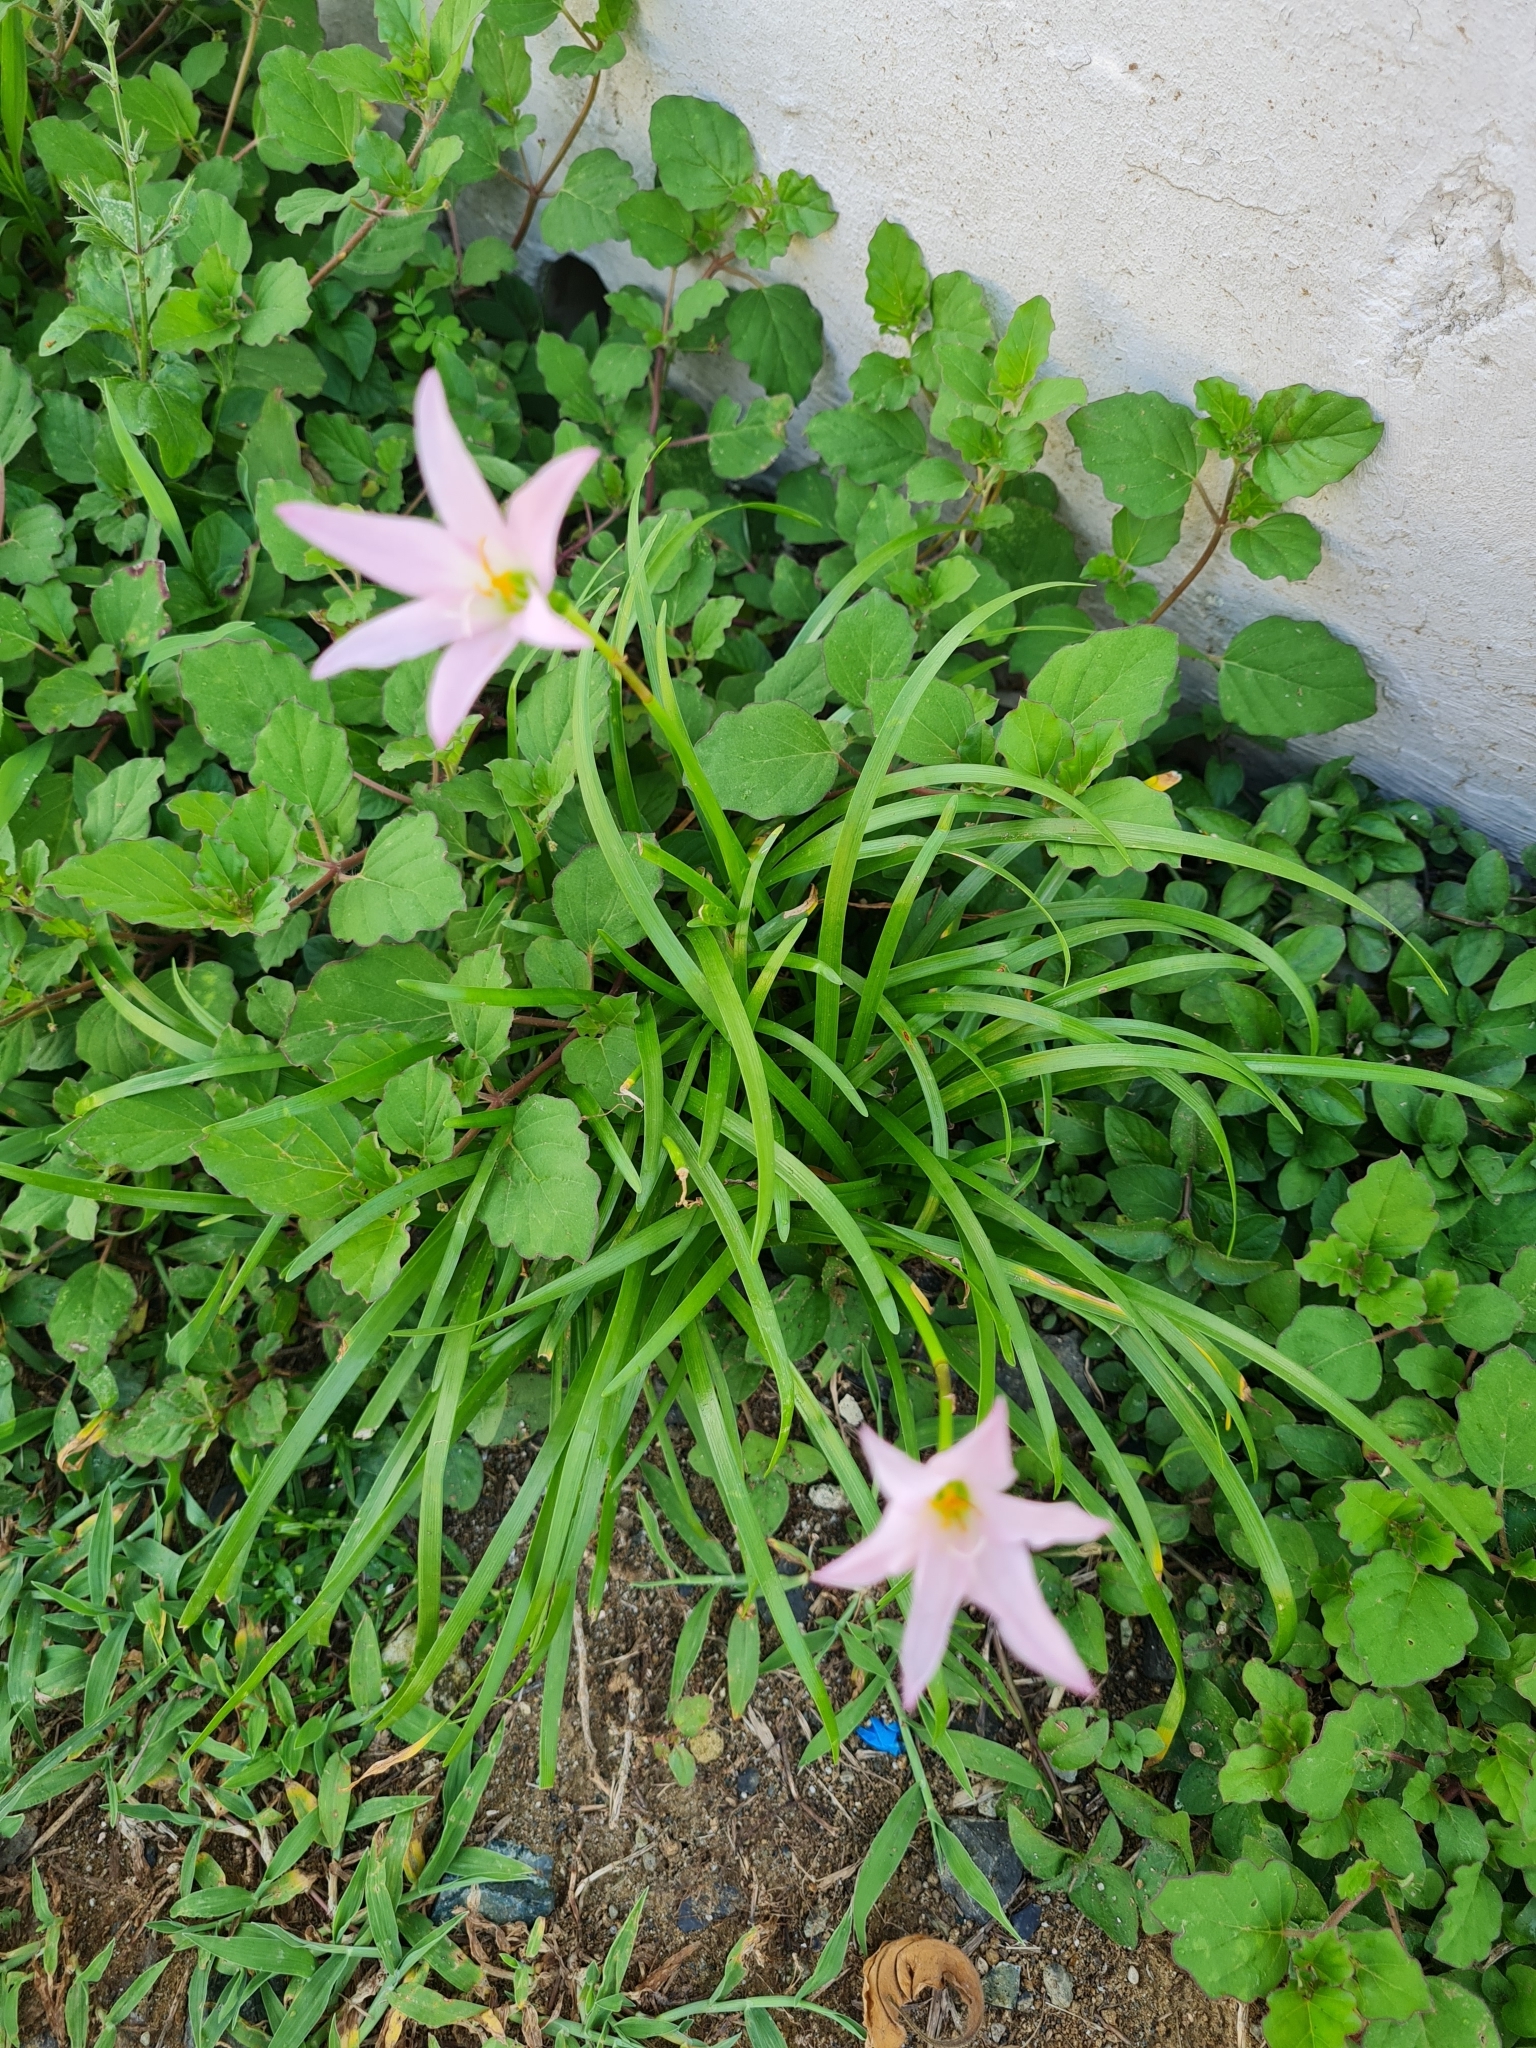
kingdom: Plantae
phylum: Tracheophyta
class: Liliopsida
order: Asparagales
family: Amaryllidaceae
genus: Zephyranthes
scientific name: Zephyranthes carinata
